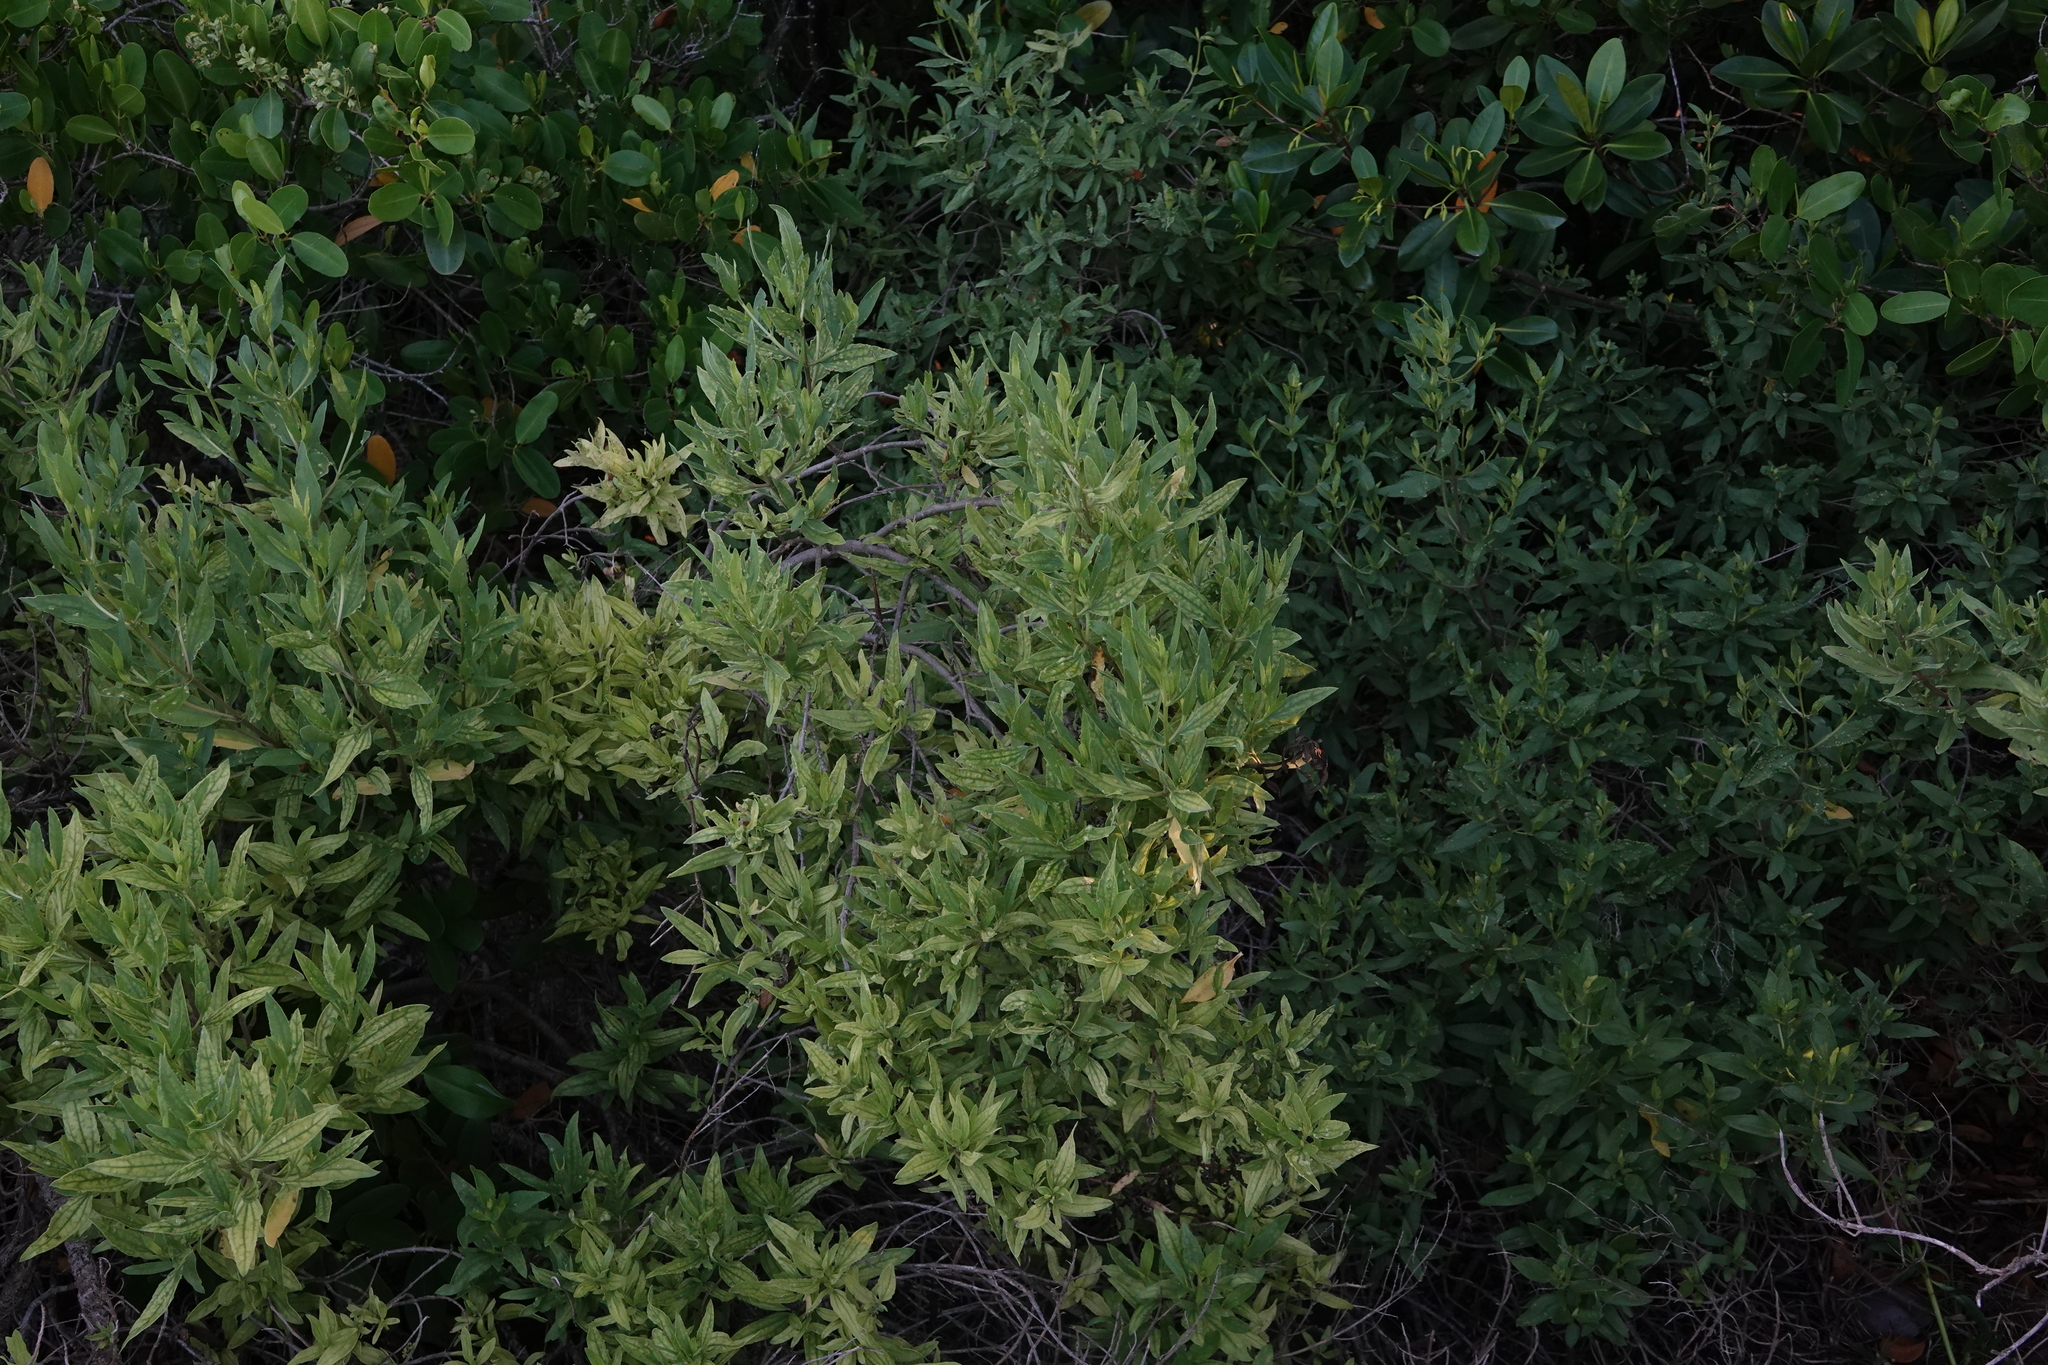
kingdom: Plantae
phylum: Tracheophyta
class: Magnoliopsida
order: Asterales
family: Asteraceae
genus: Iva
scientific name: Iva frutescens
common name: Big-leaved marsh-elder
